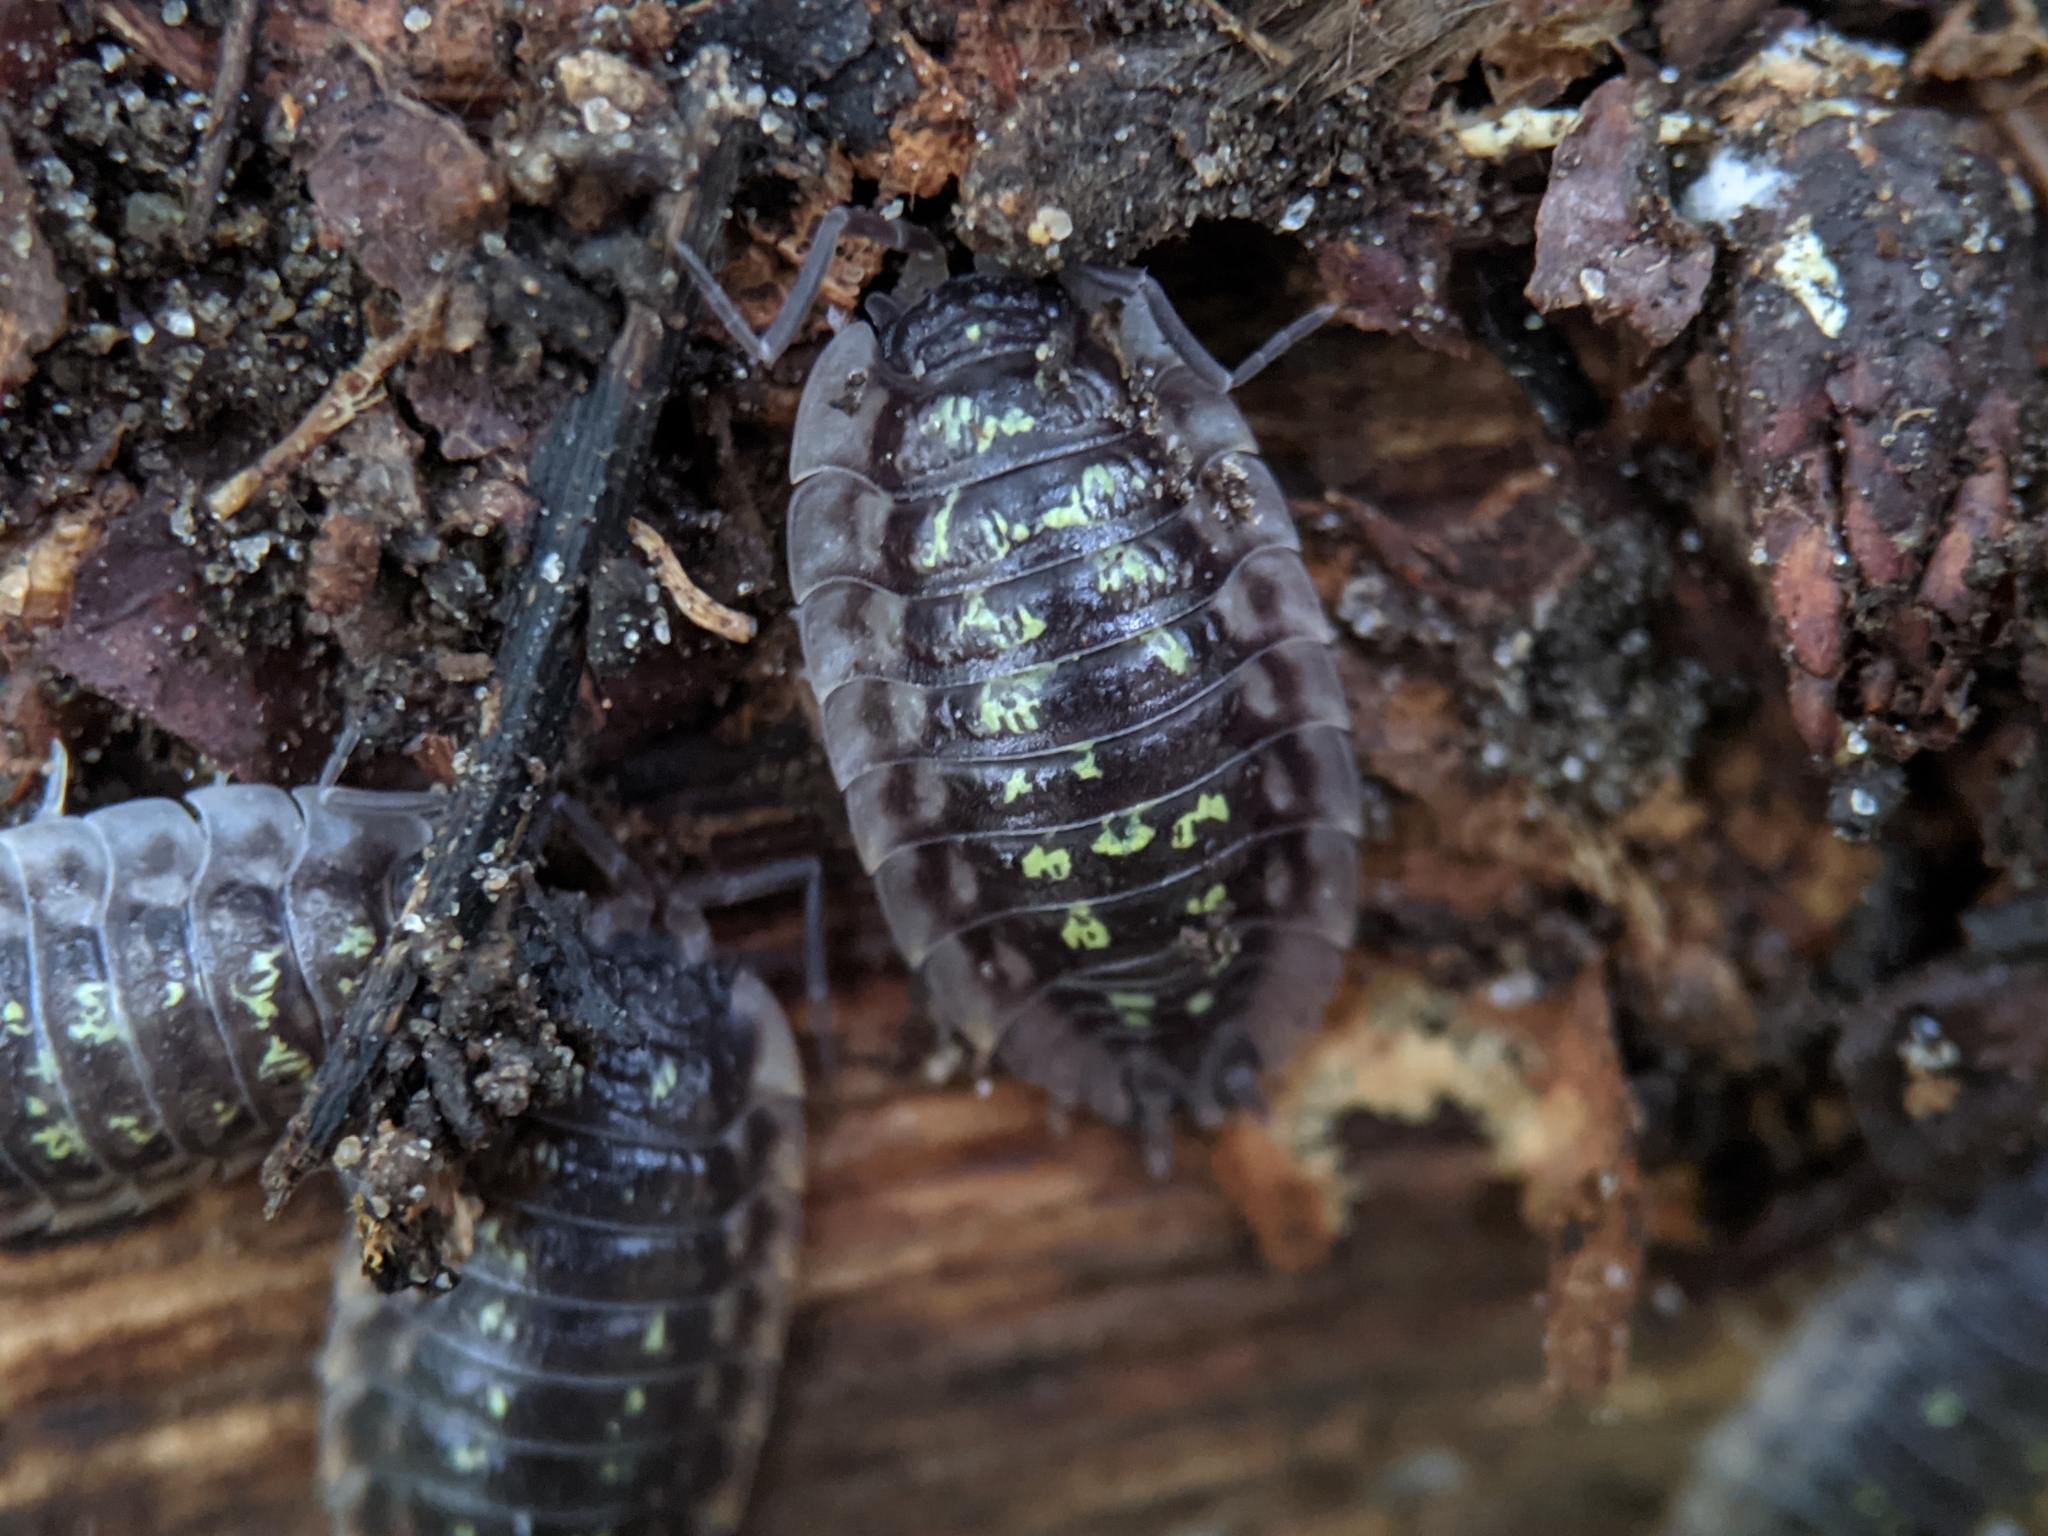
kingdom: Animalia
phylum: Arthropoda
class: Malacostraca
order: Isopoda
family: Oniscidae
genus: Oniscus
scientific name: Oniscus asellus
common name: Common shiny woodlouse
